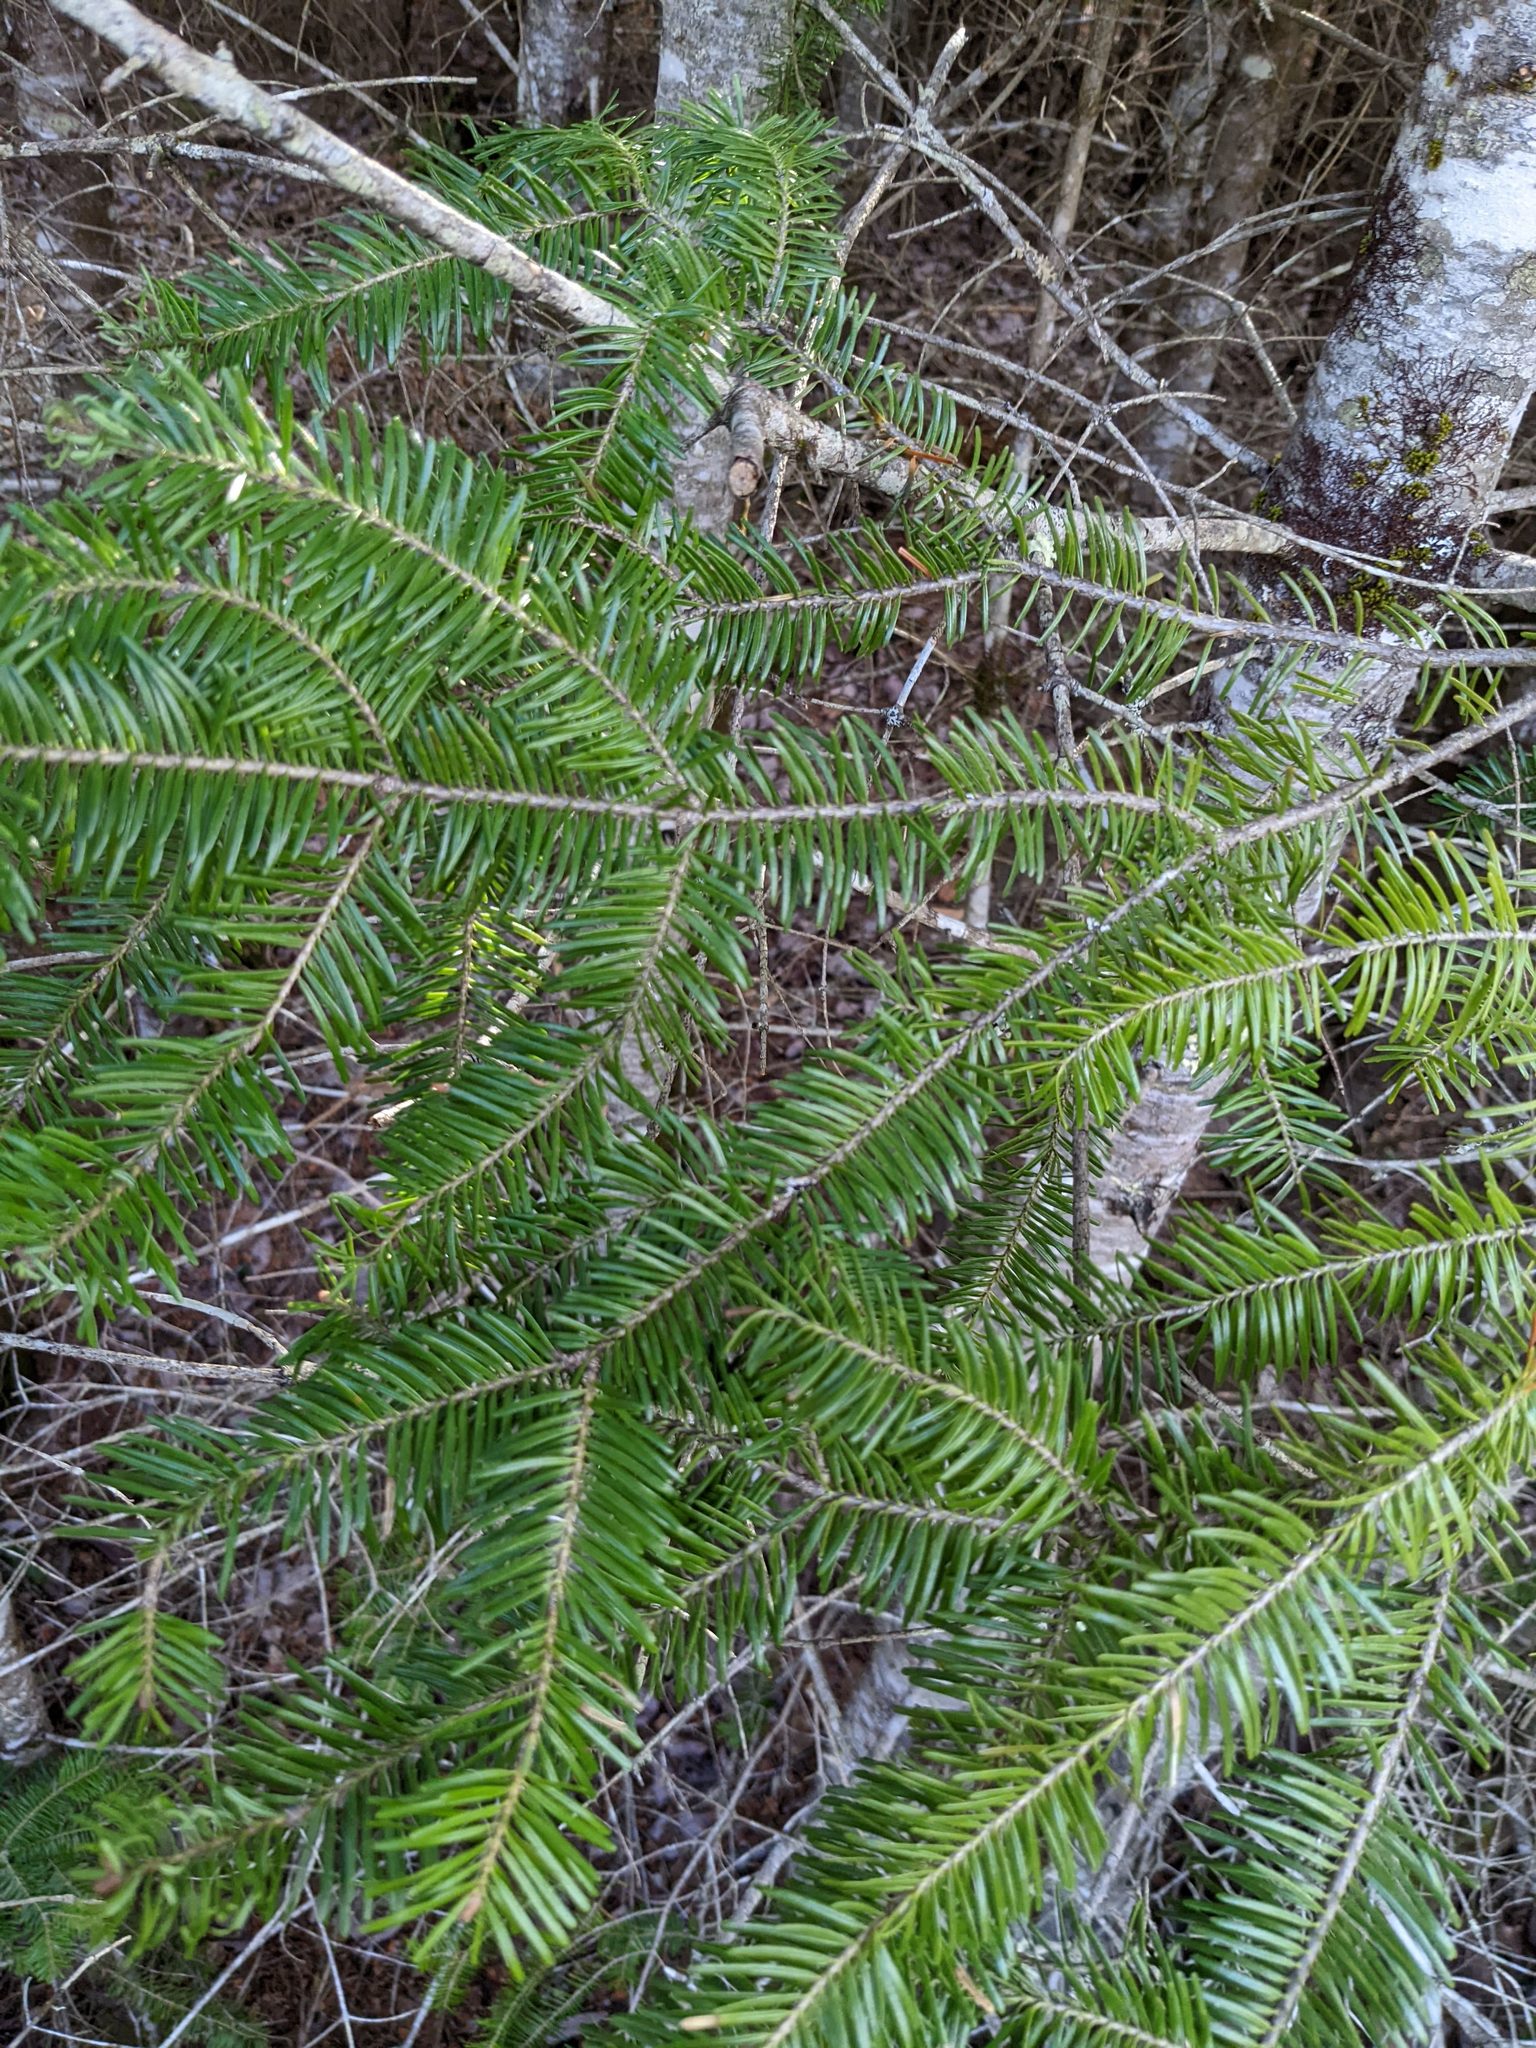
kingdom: Plantae
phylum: Tracheophyta
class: Pinopsida
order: Pinales
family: Pinaceae
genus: Abies
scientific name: Abies balsamea
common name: Balsam fir
